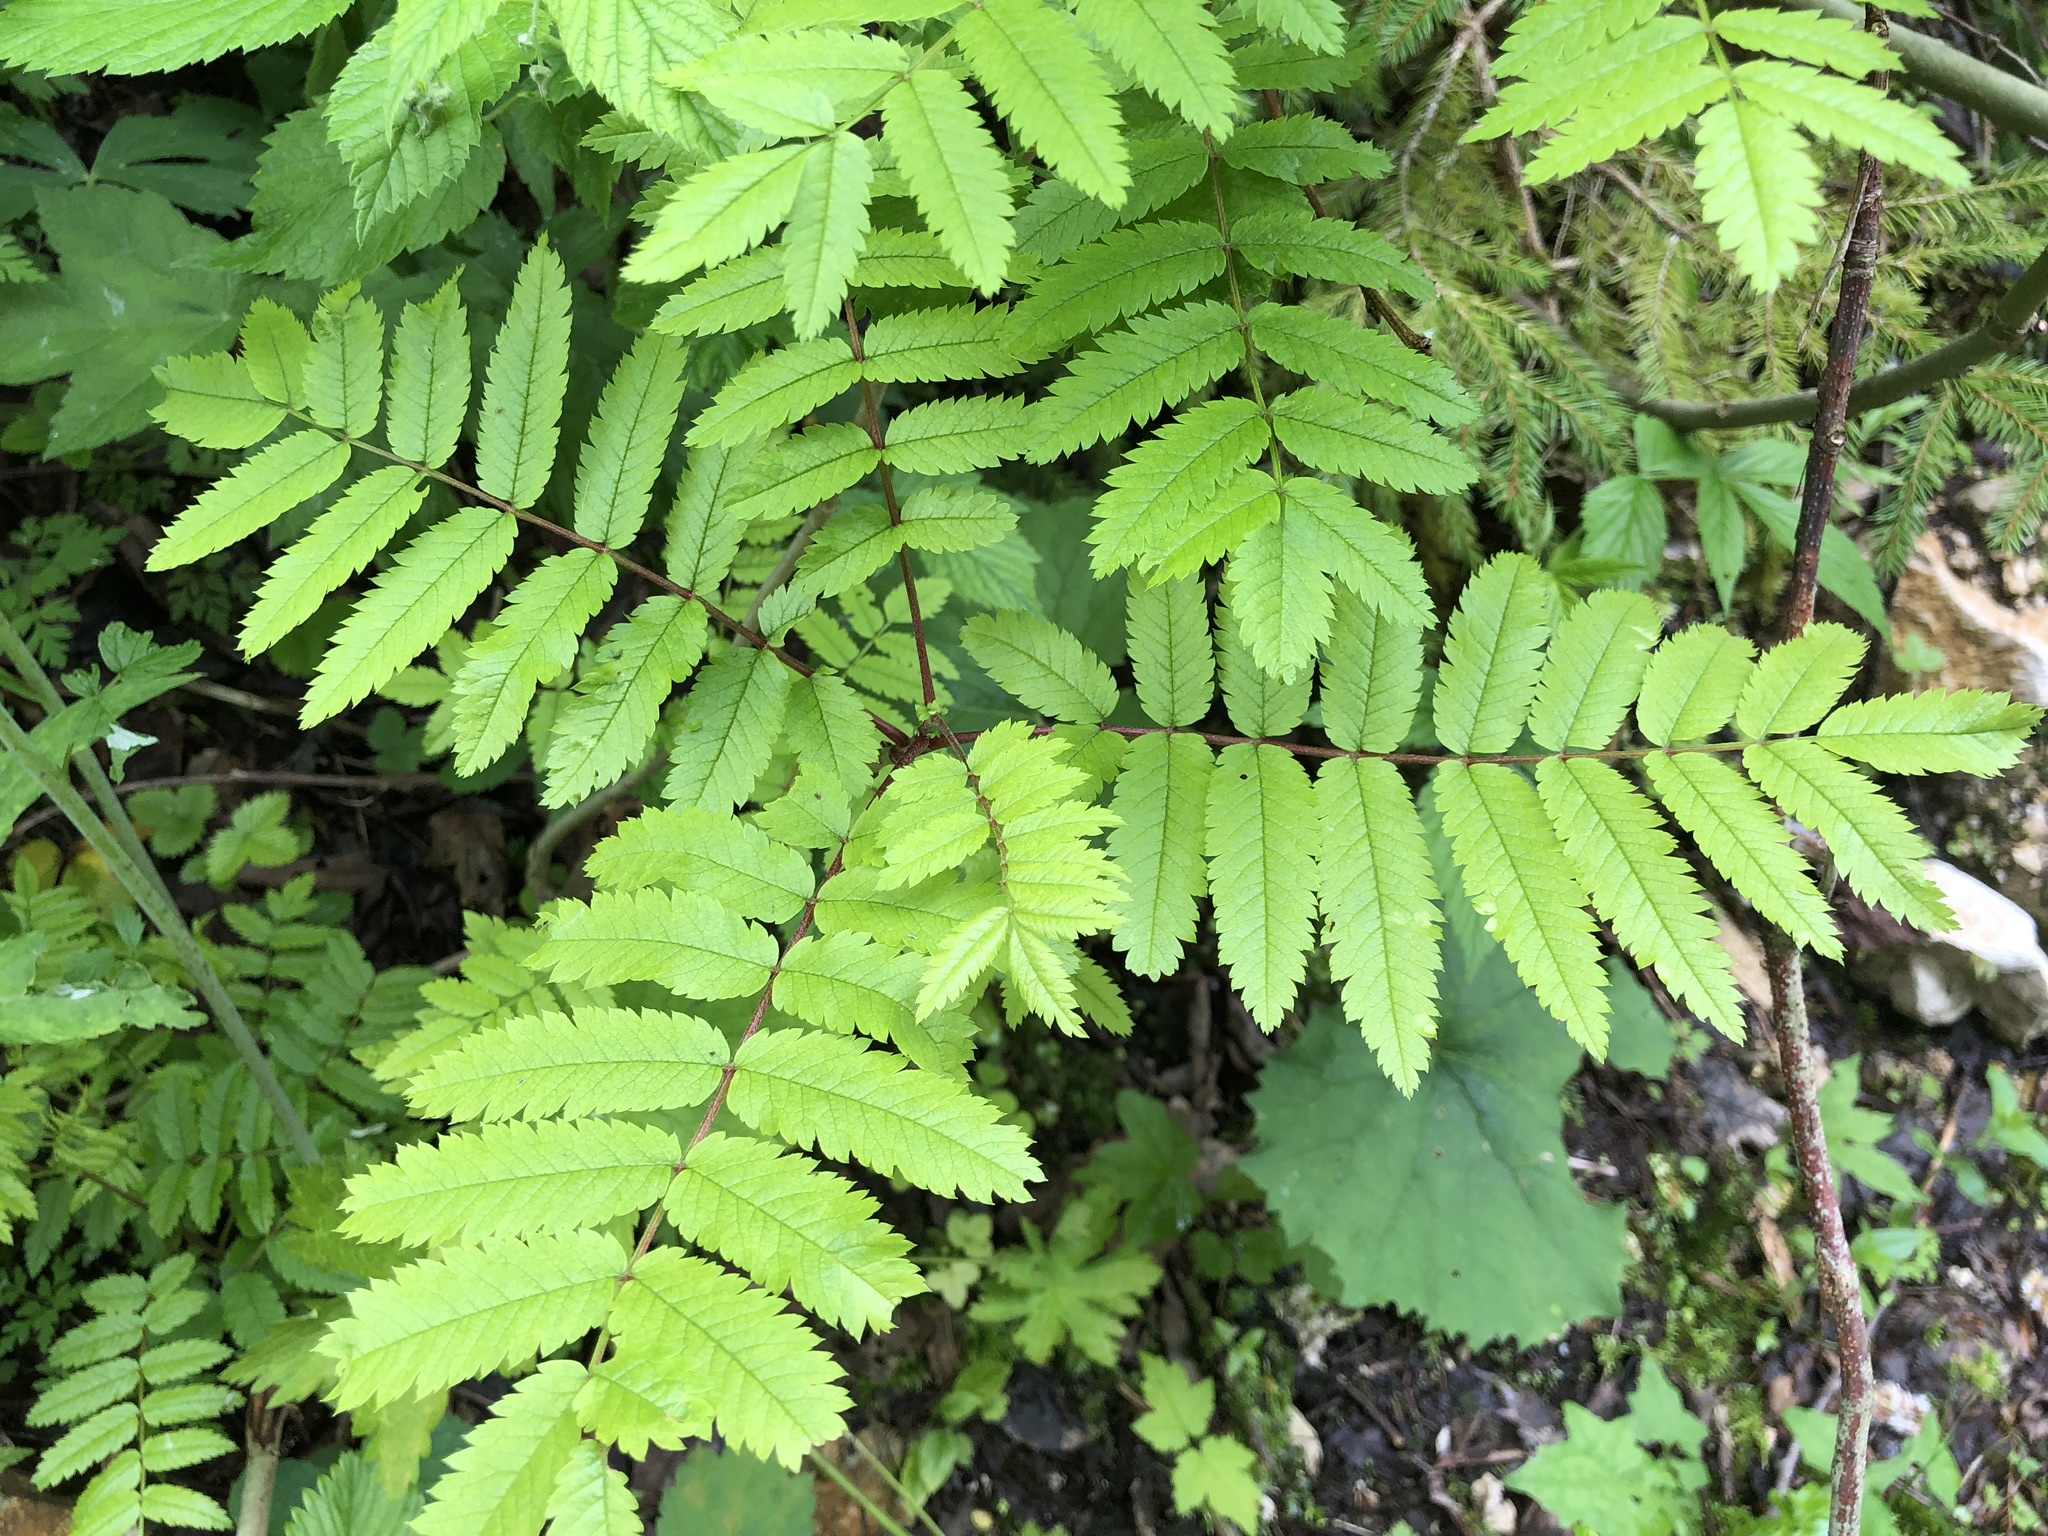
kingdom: Plantae
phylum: Tracheophyta
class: Magnoliopsida
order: Rosales
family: Rosaceae
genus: Sorbus
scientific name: Sorbus aucuparia
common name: Rowan
